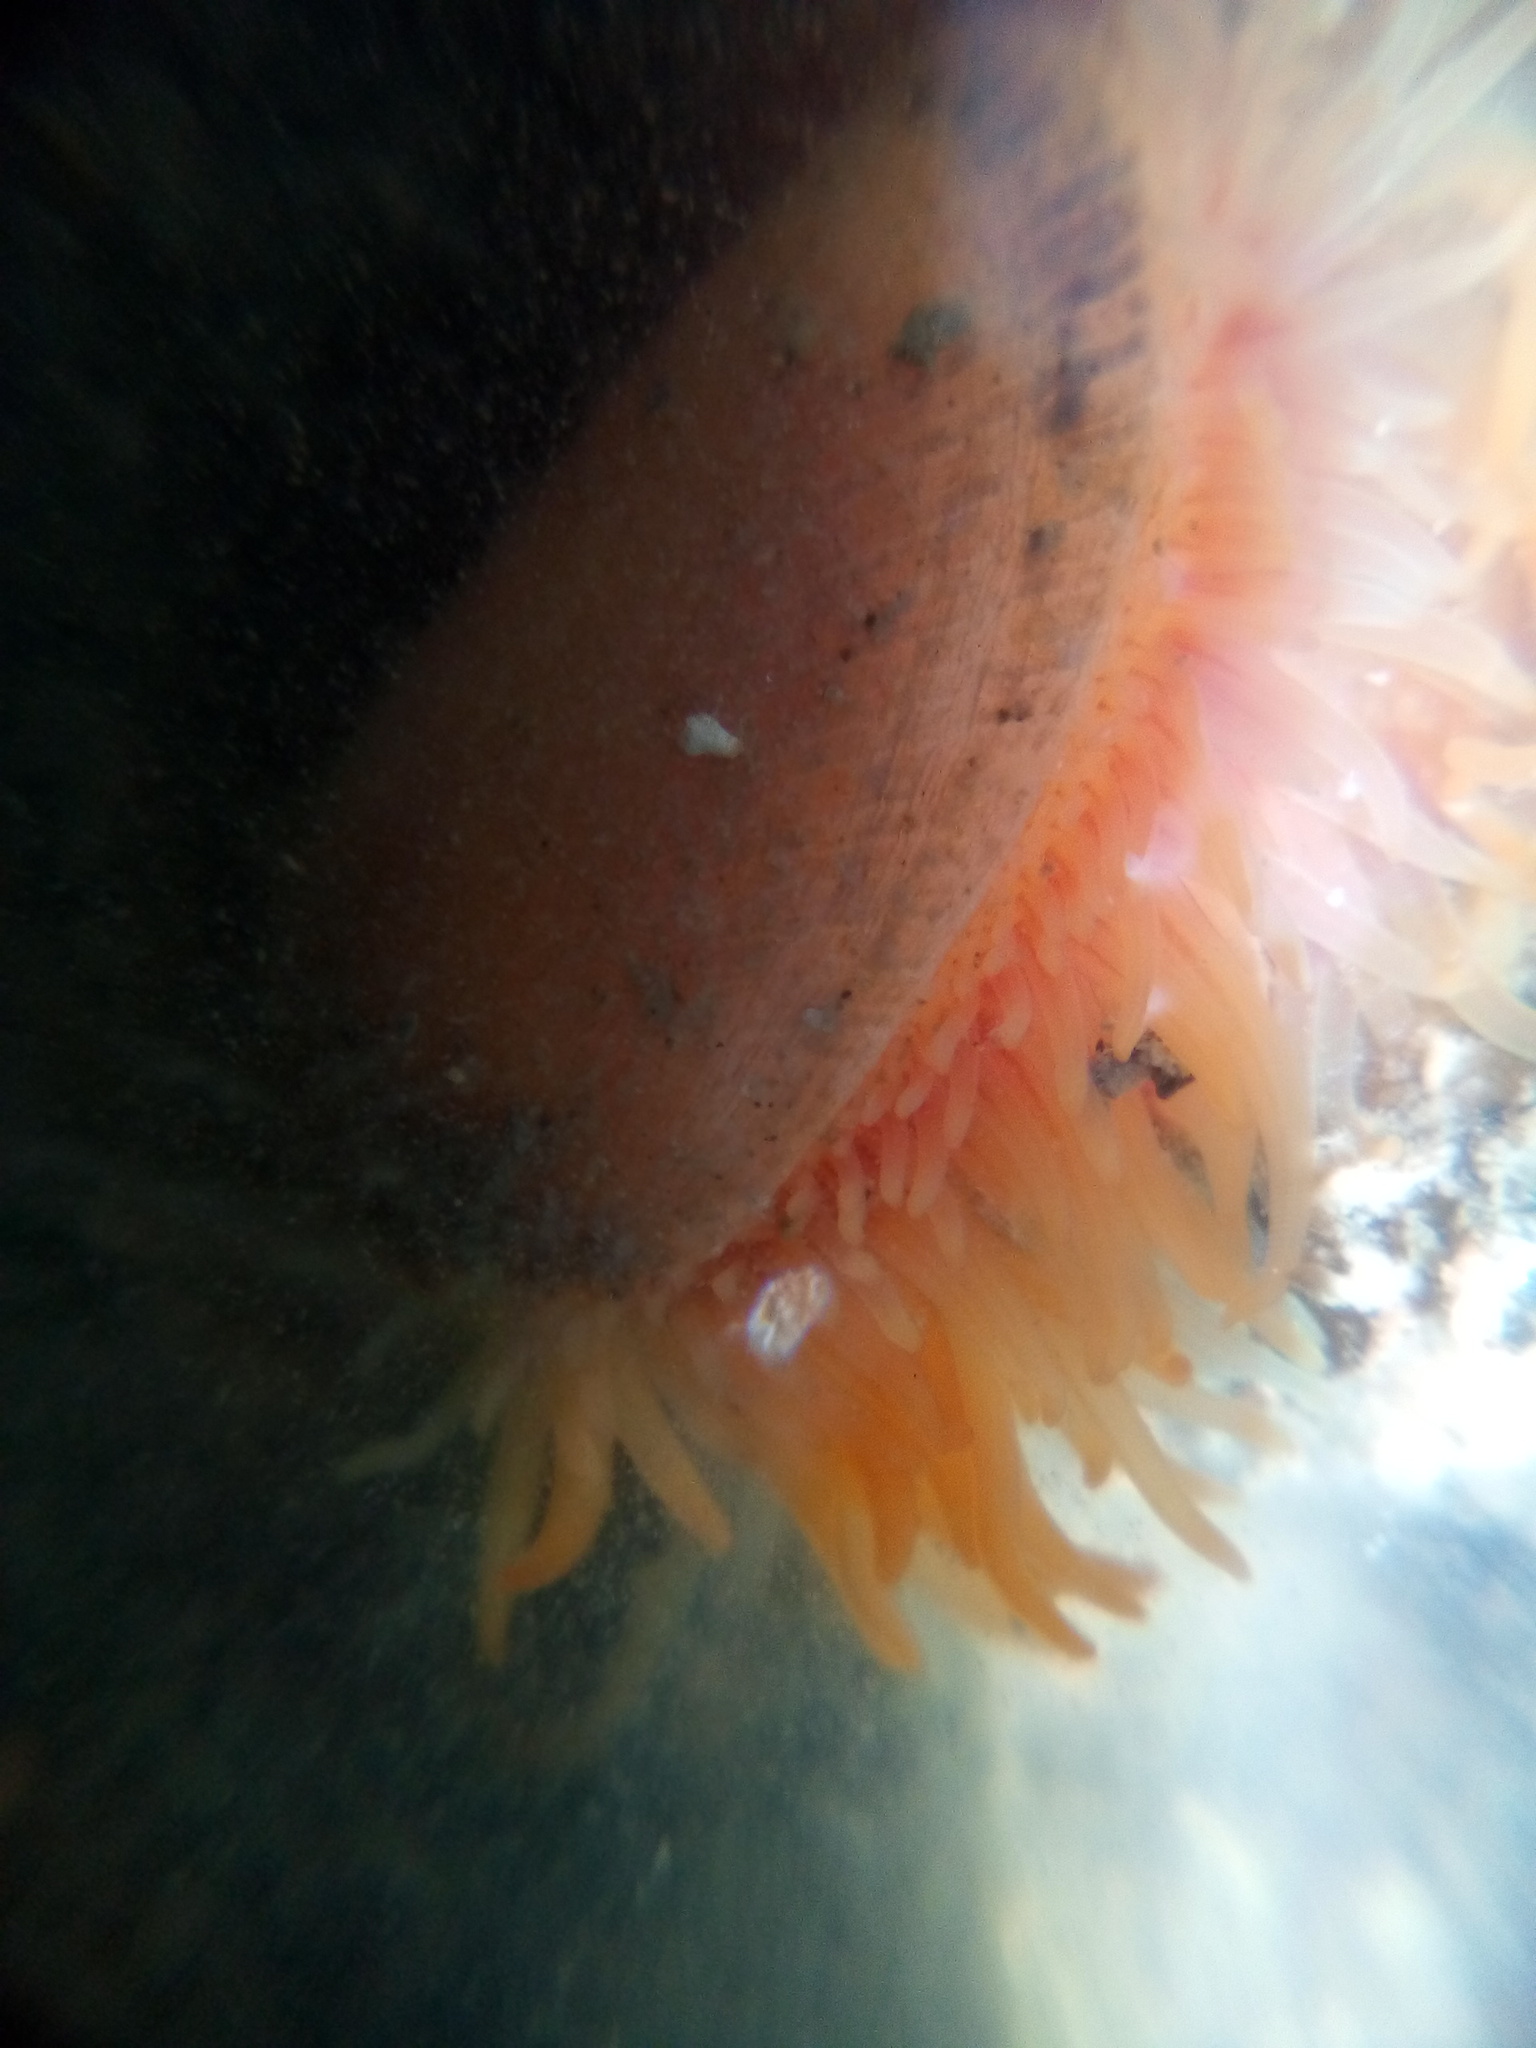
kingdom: Animalia
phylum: Mollusca
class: Bivalvia
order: Limida
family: Limidae
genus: Limaria
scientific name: Limaria orientalis
